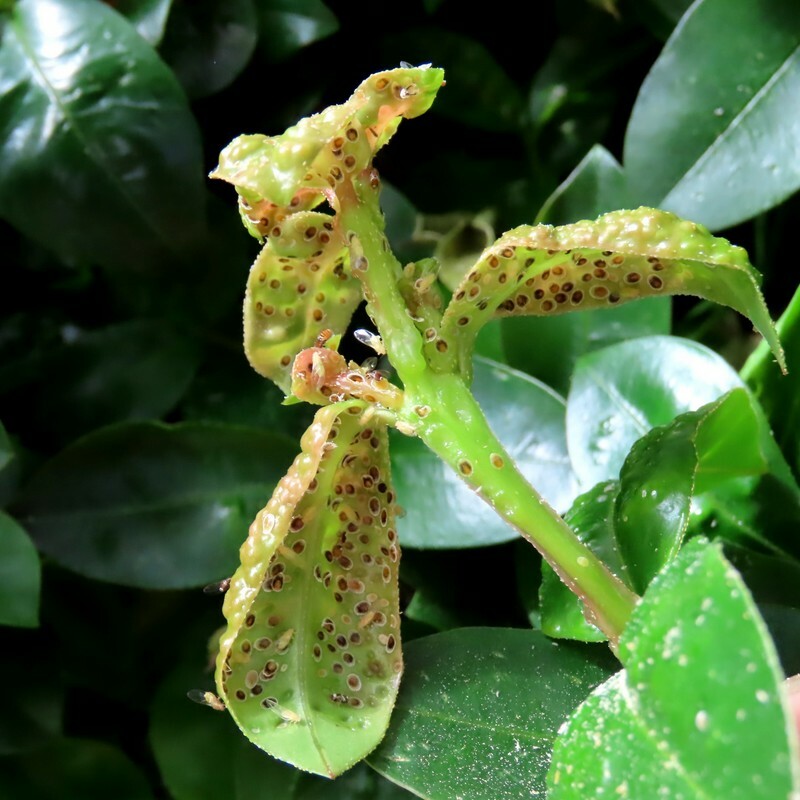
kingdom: Animalia
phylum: Arthropoda
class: Insecta
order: Hemiptera
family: Triozidae
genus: Trioza
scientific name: Trioza adventicia
